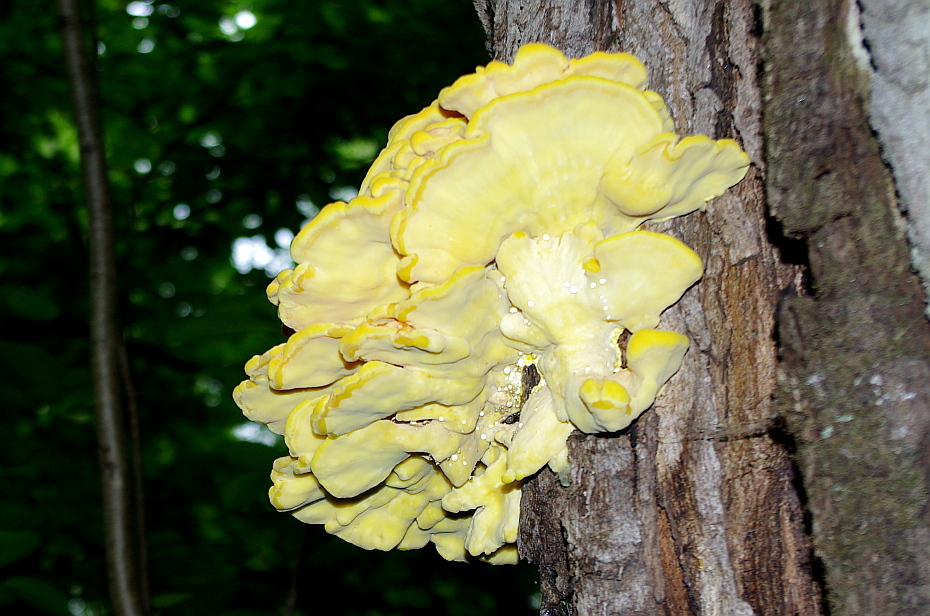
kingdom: Fungi
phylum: Basidiomycota
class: Agaricomycetes
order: Polyporales
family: Laetiporaceae
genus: Laetiporus
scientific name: Laetiporus sulphureus
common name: Chicken of the woods
